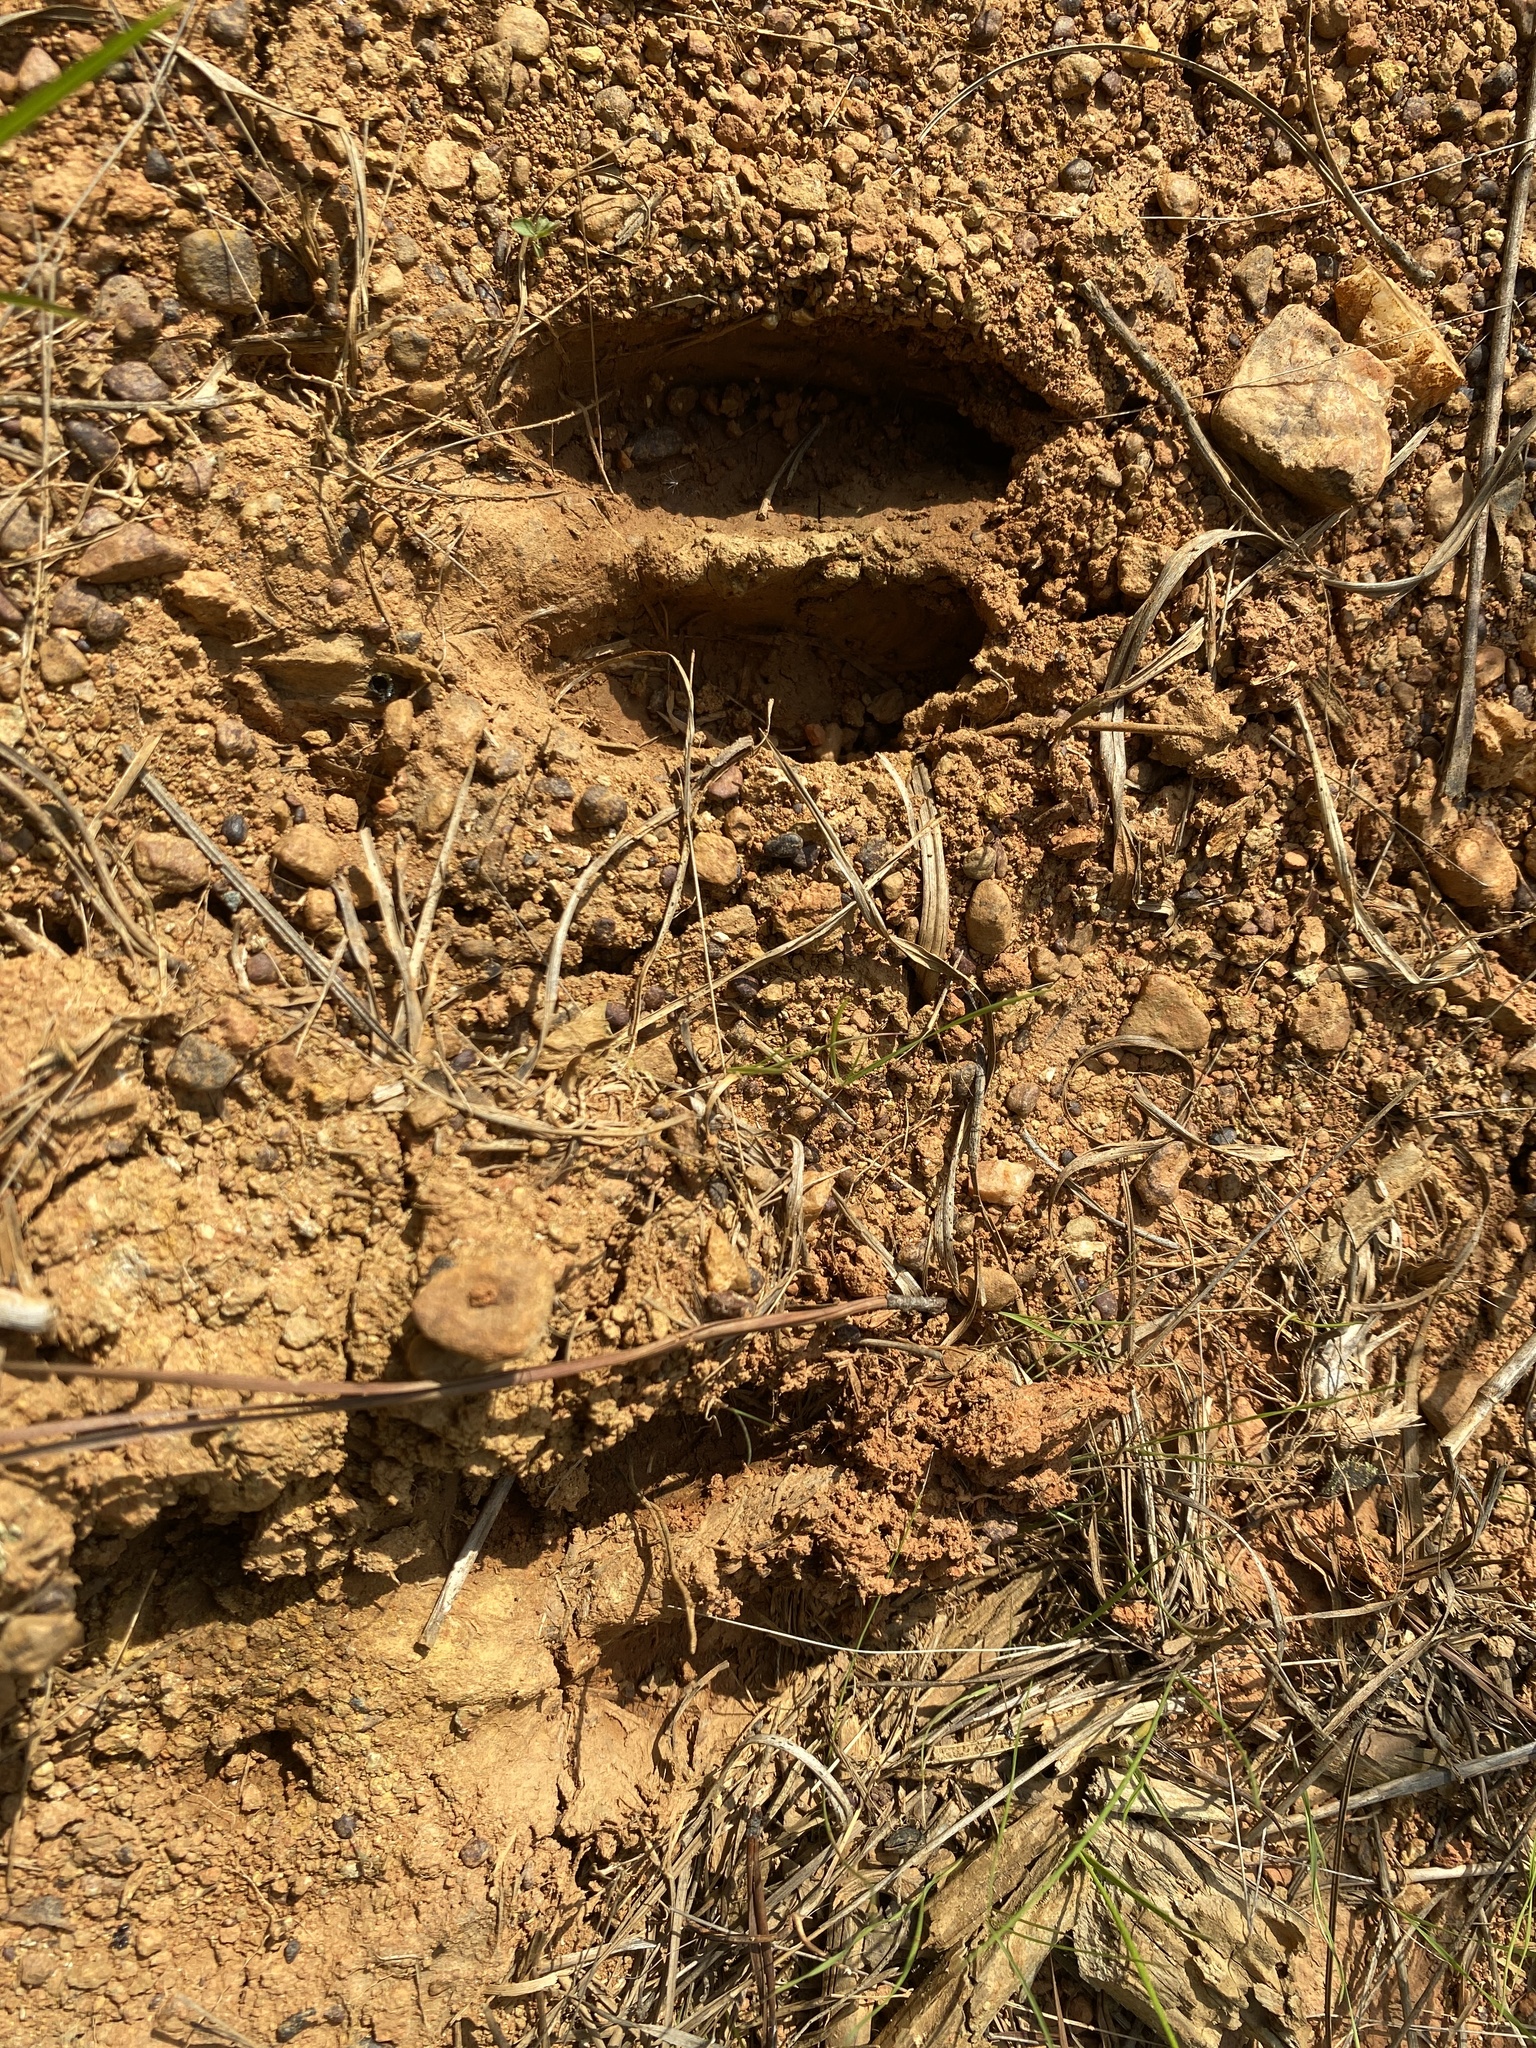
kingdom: Animalia
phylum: Chordata
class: Mammalia
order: Artiodactyla
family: Cervidae
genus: Odocoileus
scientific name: Odocoileus virginianus
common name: White-tailed deer
